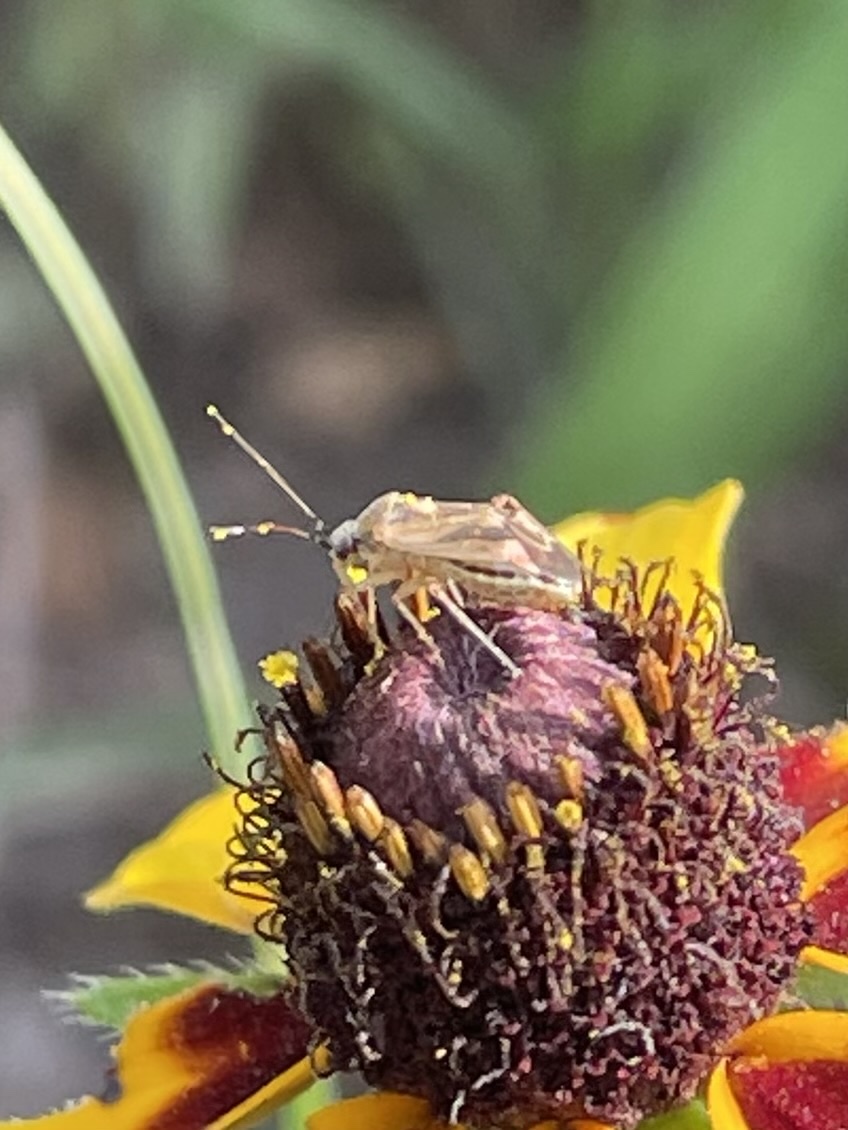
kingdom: Animalia
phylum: Arthropoda
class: Insecta
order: Hemiptera
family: Miridae
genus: Polymerus
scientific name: Polymerus basalis
